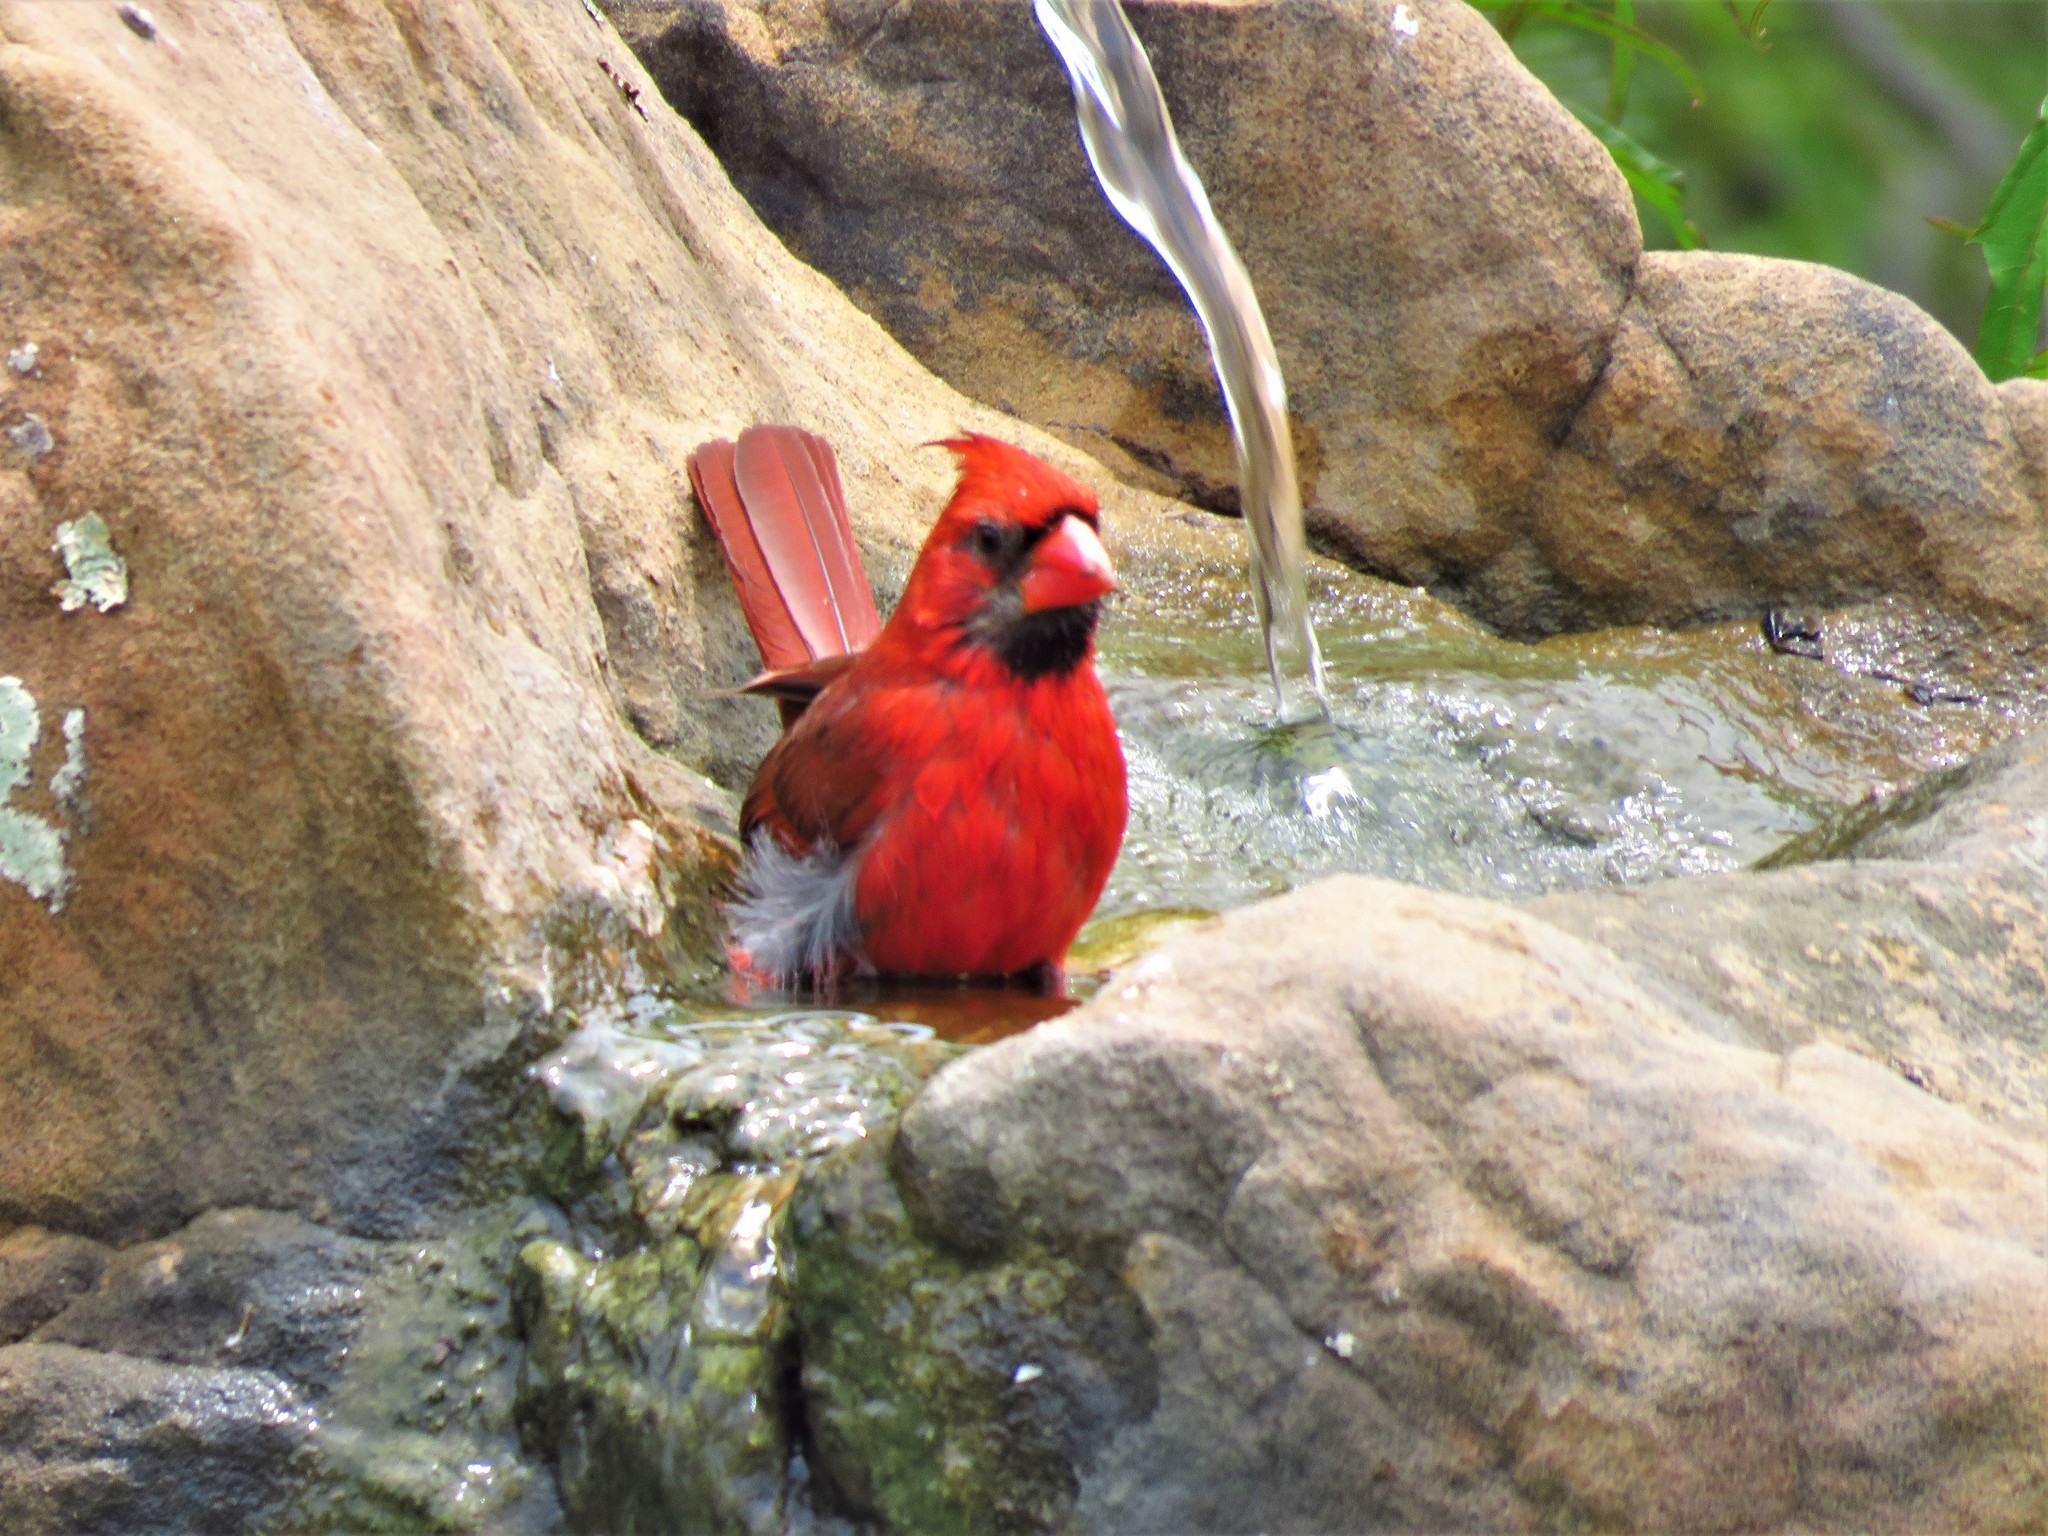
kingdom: Animalia
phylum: Chordata
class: Aves
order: Passeriformes
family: Cardinalidae
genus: Cardinalis
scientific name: Cardinalis cardinalis
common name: Northern cardinal
